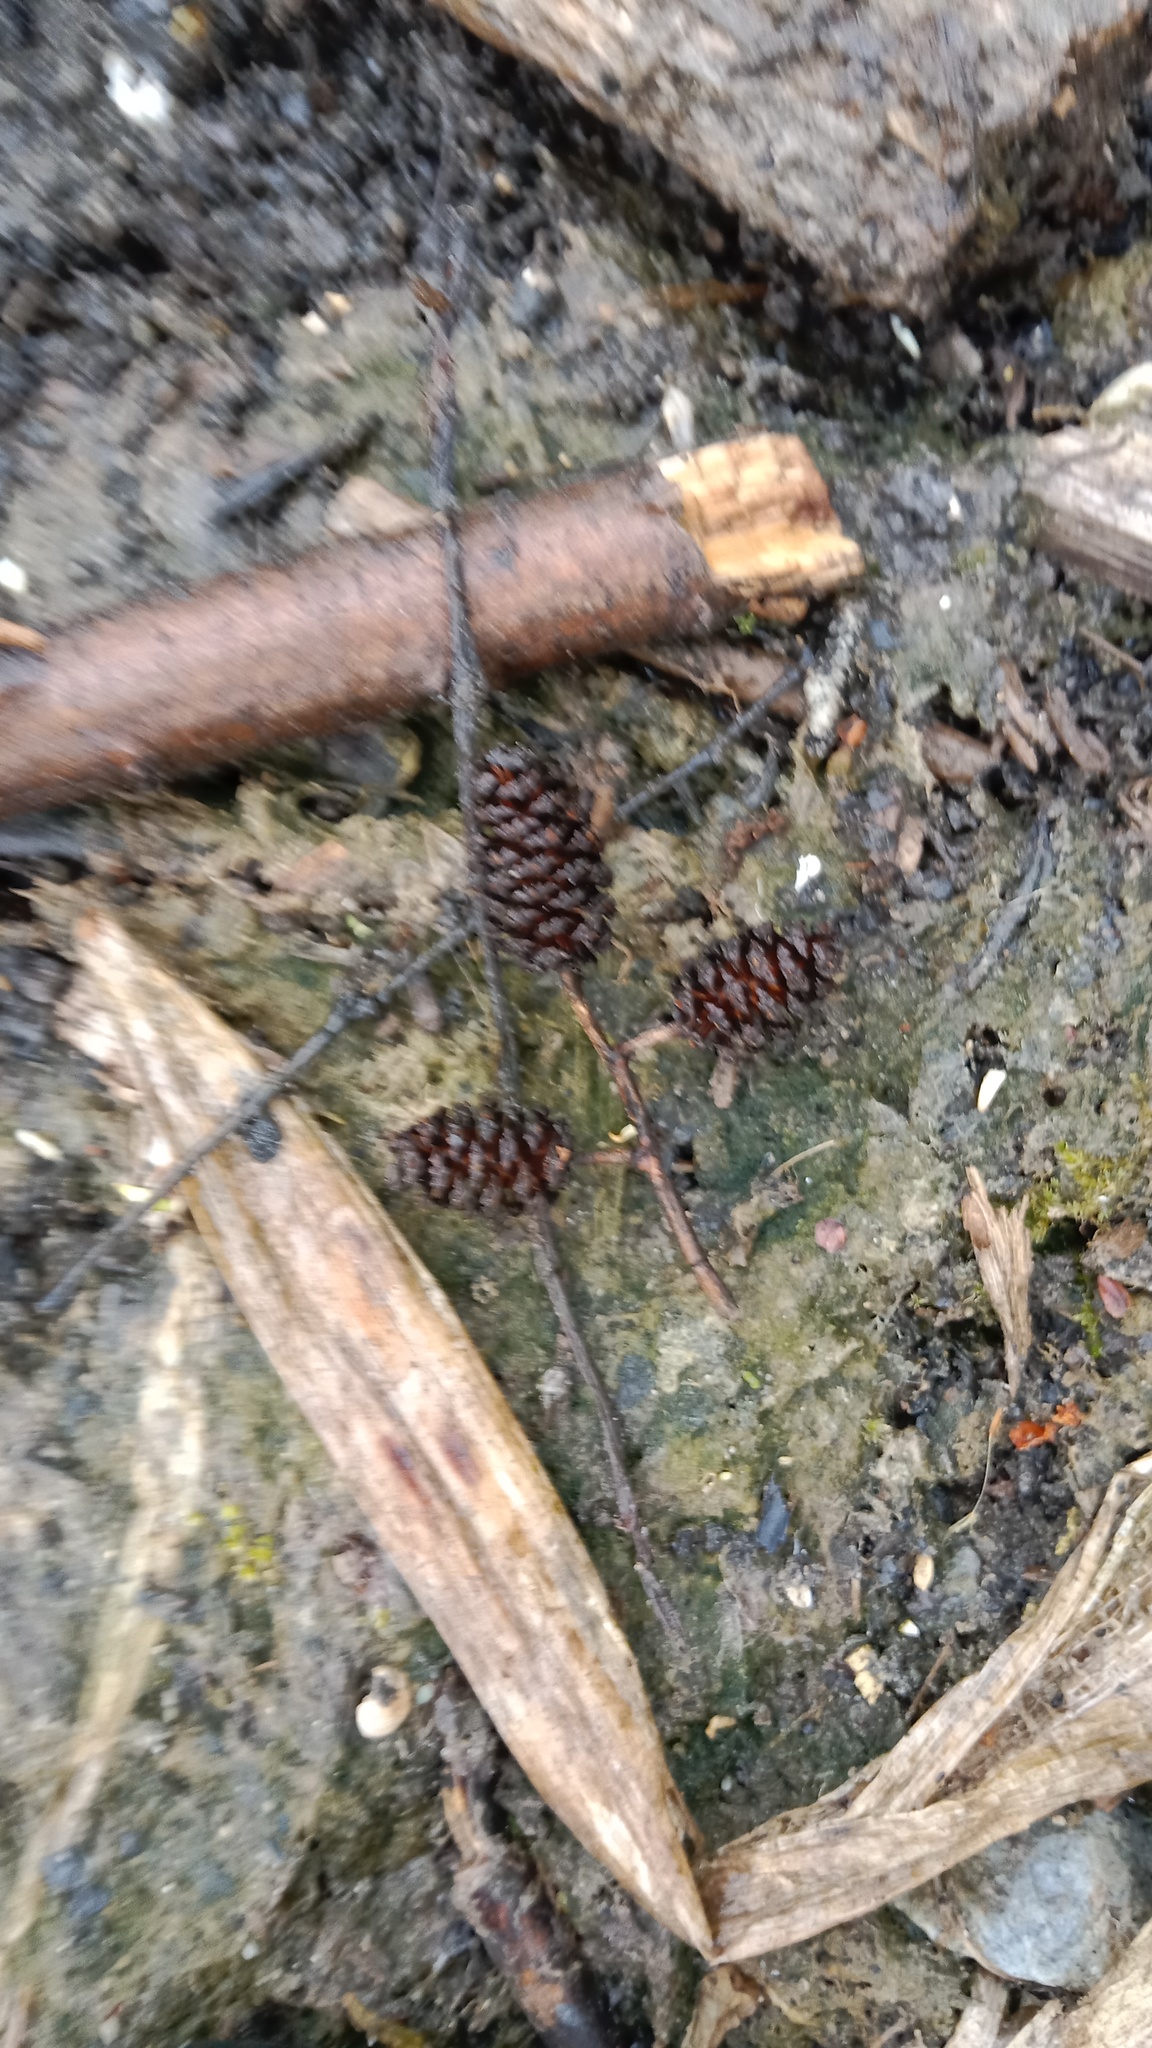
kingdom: Plantae
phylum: Tracheophyta
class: Magnoliopsida
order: Fagales
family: Betulaceae
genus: Alnus
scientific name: Alnus glutinosa
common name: Black alder
